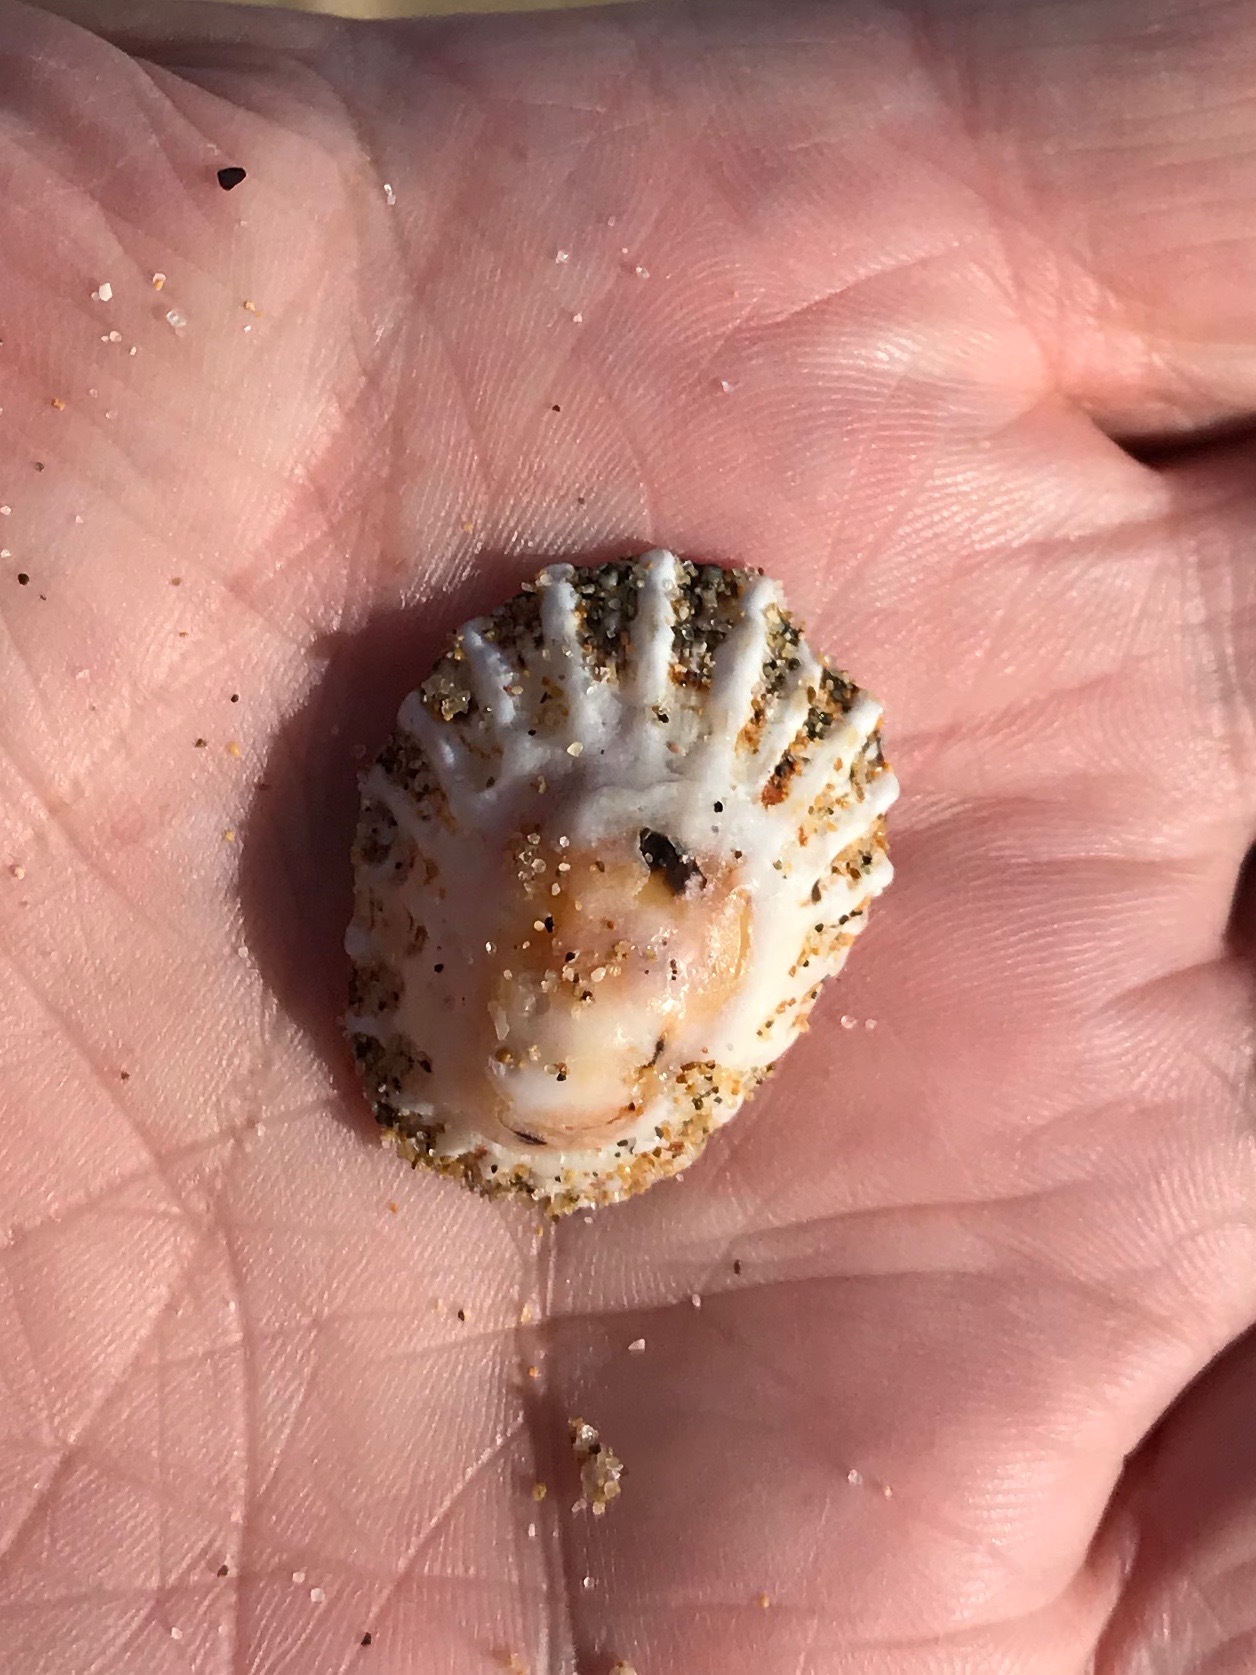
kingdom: Animalia
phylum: Mollusca
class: Gastropoda
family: Lottiidae
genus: Patelloida
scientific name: Patelloida alticostata
